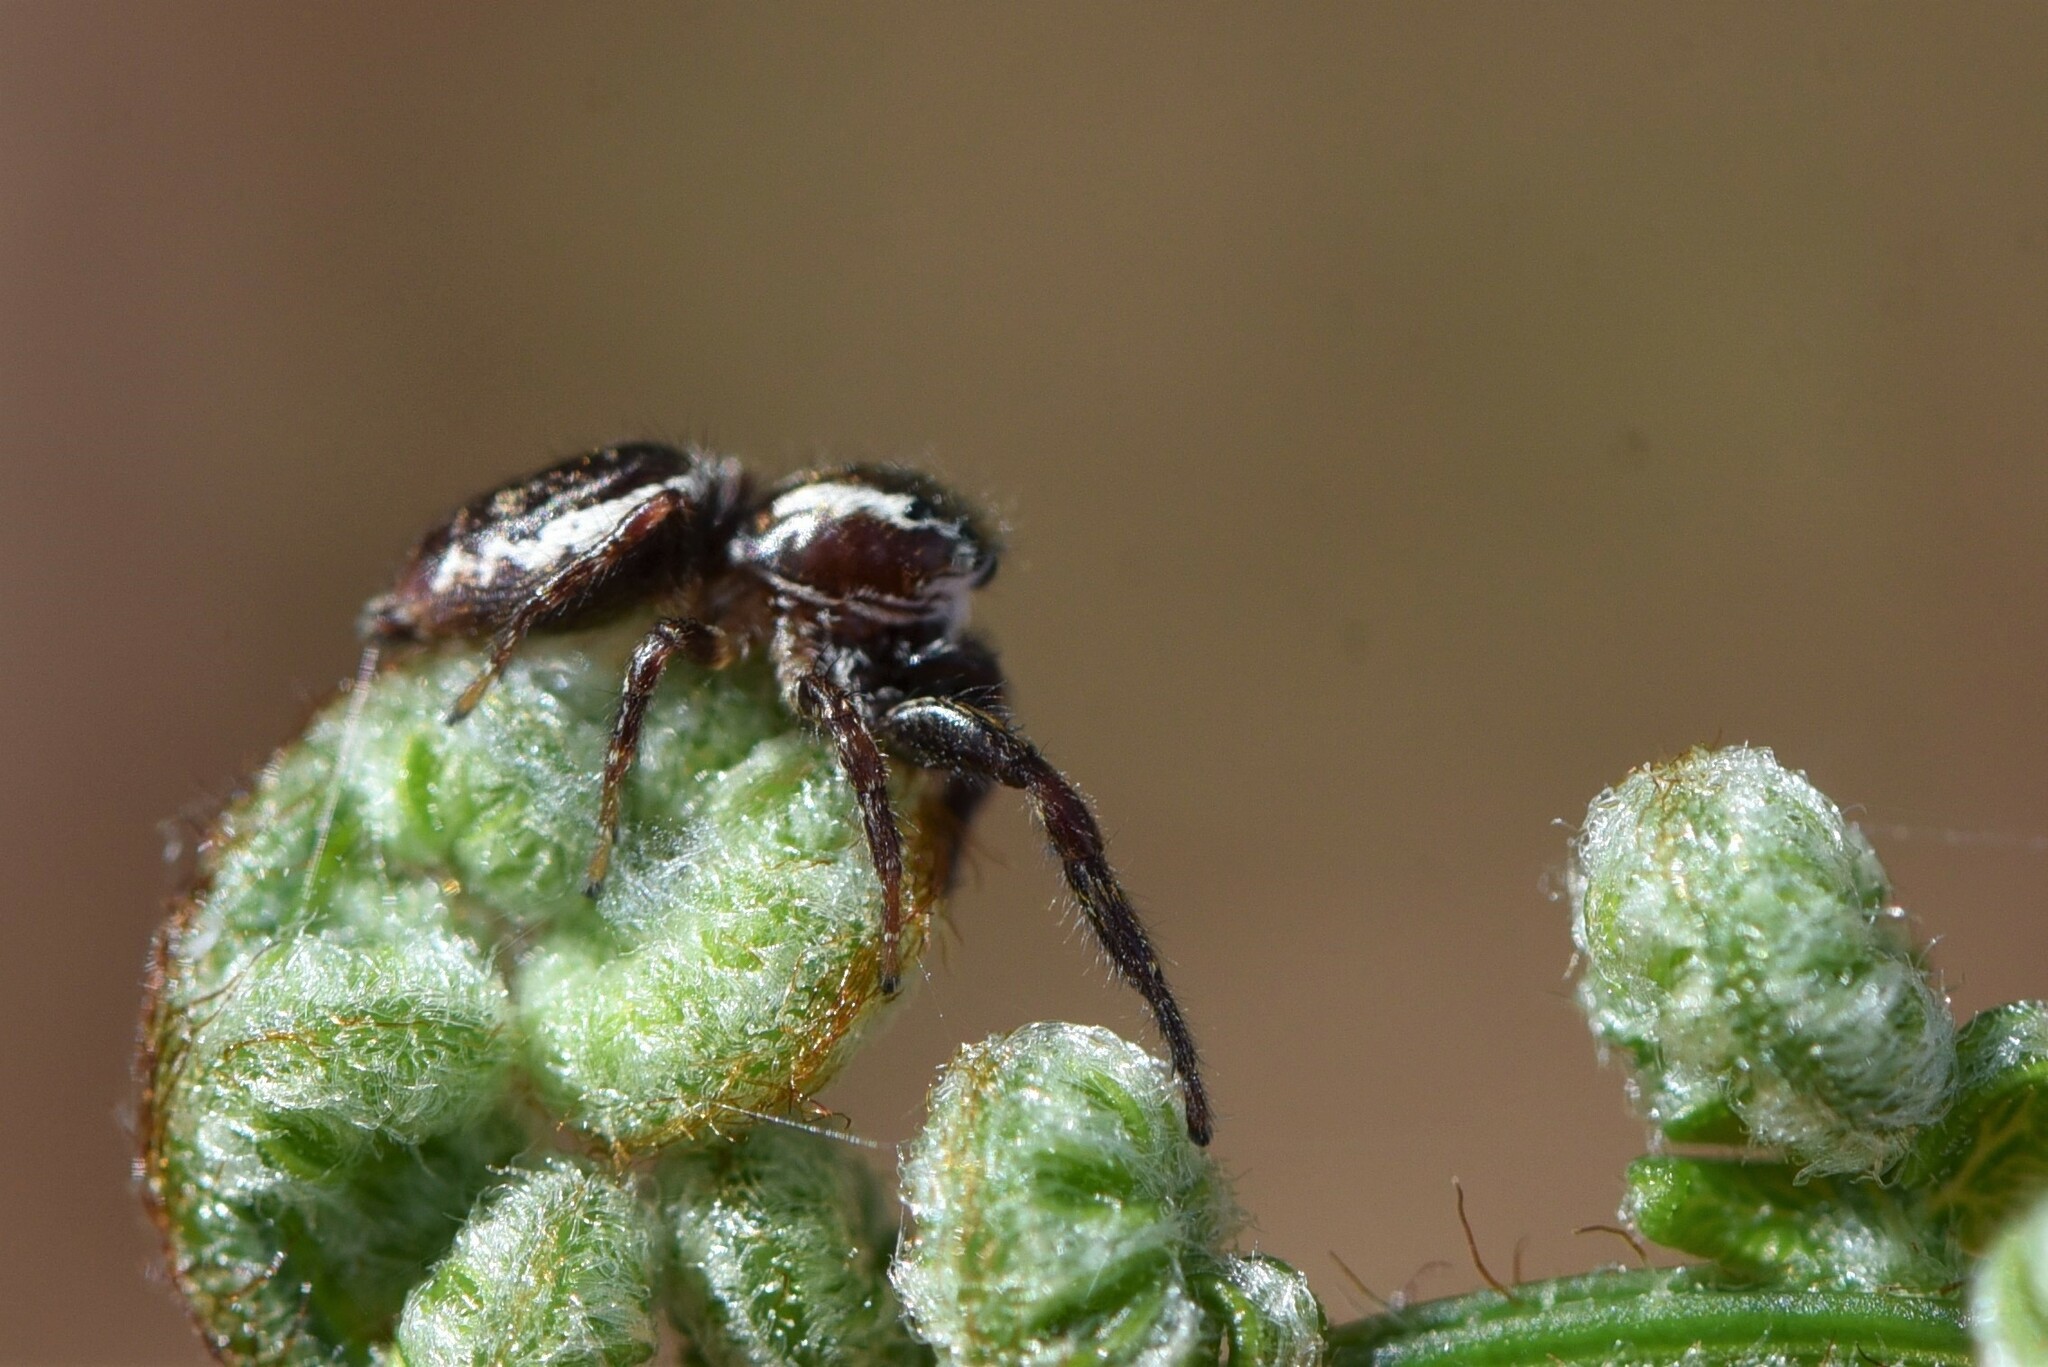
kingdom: Animalia
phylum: Arthropoda
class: Arachnida
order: Araneae
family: Salticidae
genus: Phanias
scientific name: Phanias albeolus
